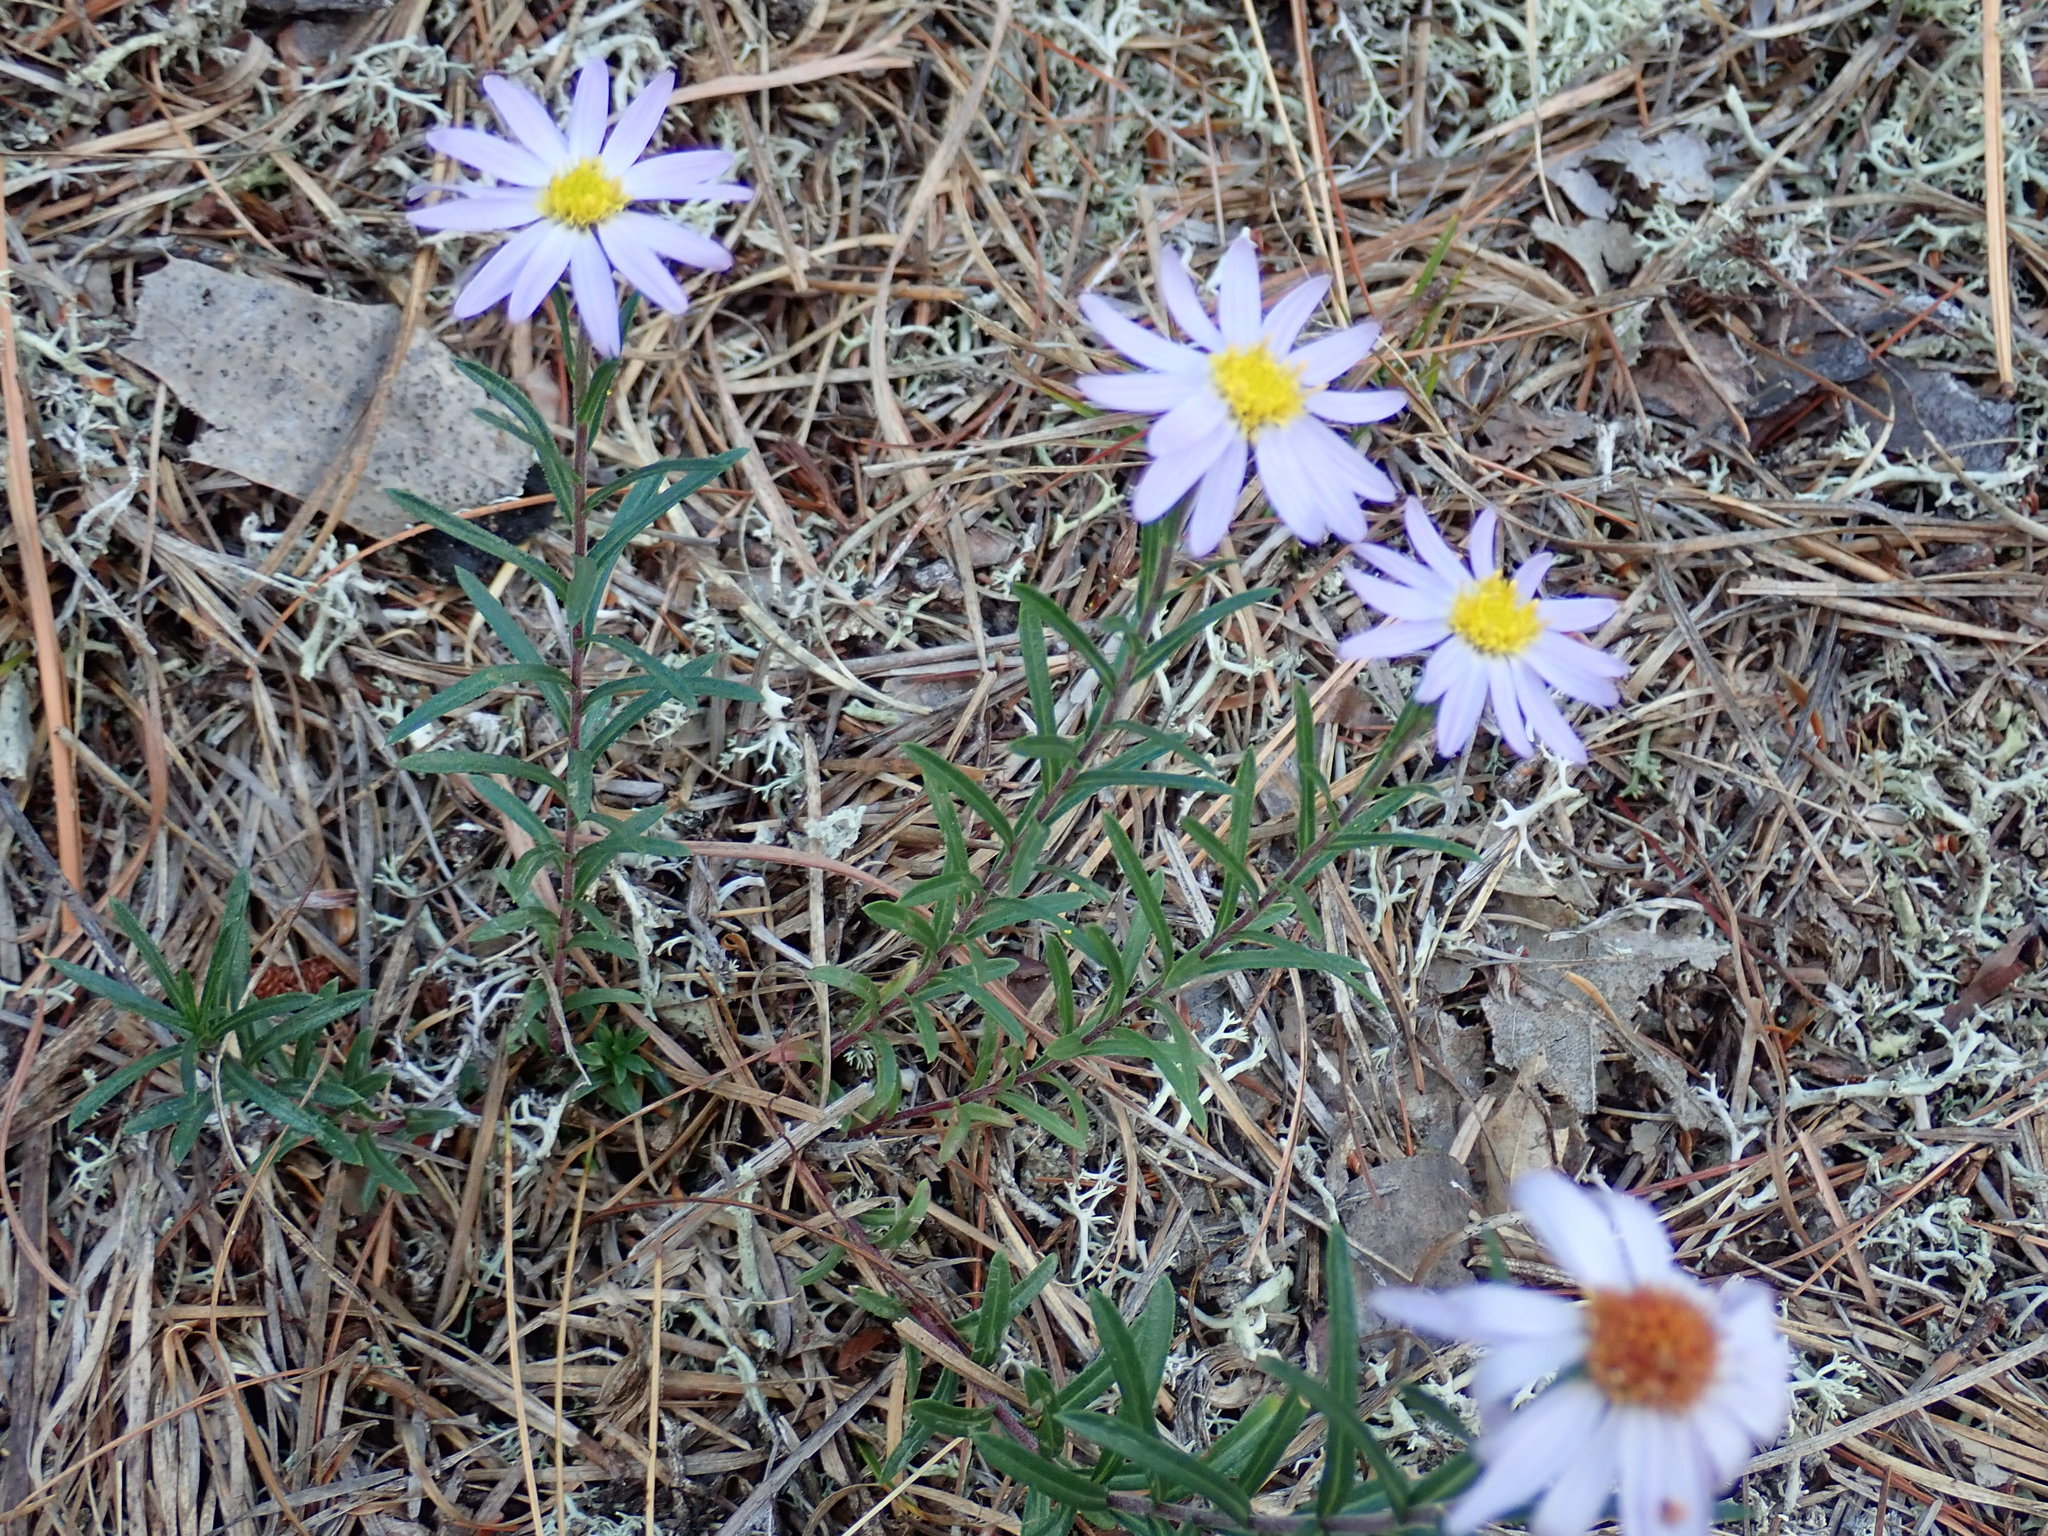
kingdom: Plantae
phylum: Tracheophyta
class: Magnoliopsida
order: Asterales
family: Asteraceae
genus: Ionactis
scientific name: Ionactis linariifolia
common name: Flax-leaf aster
